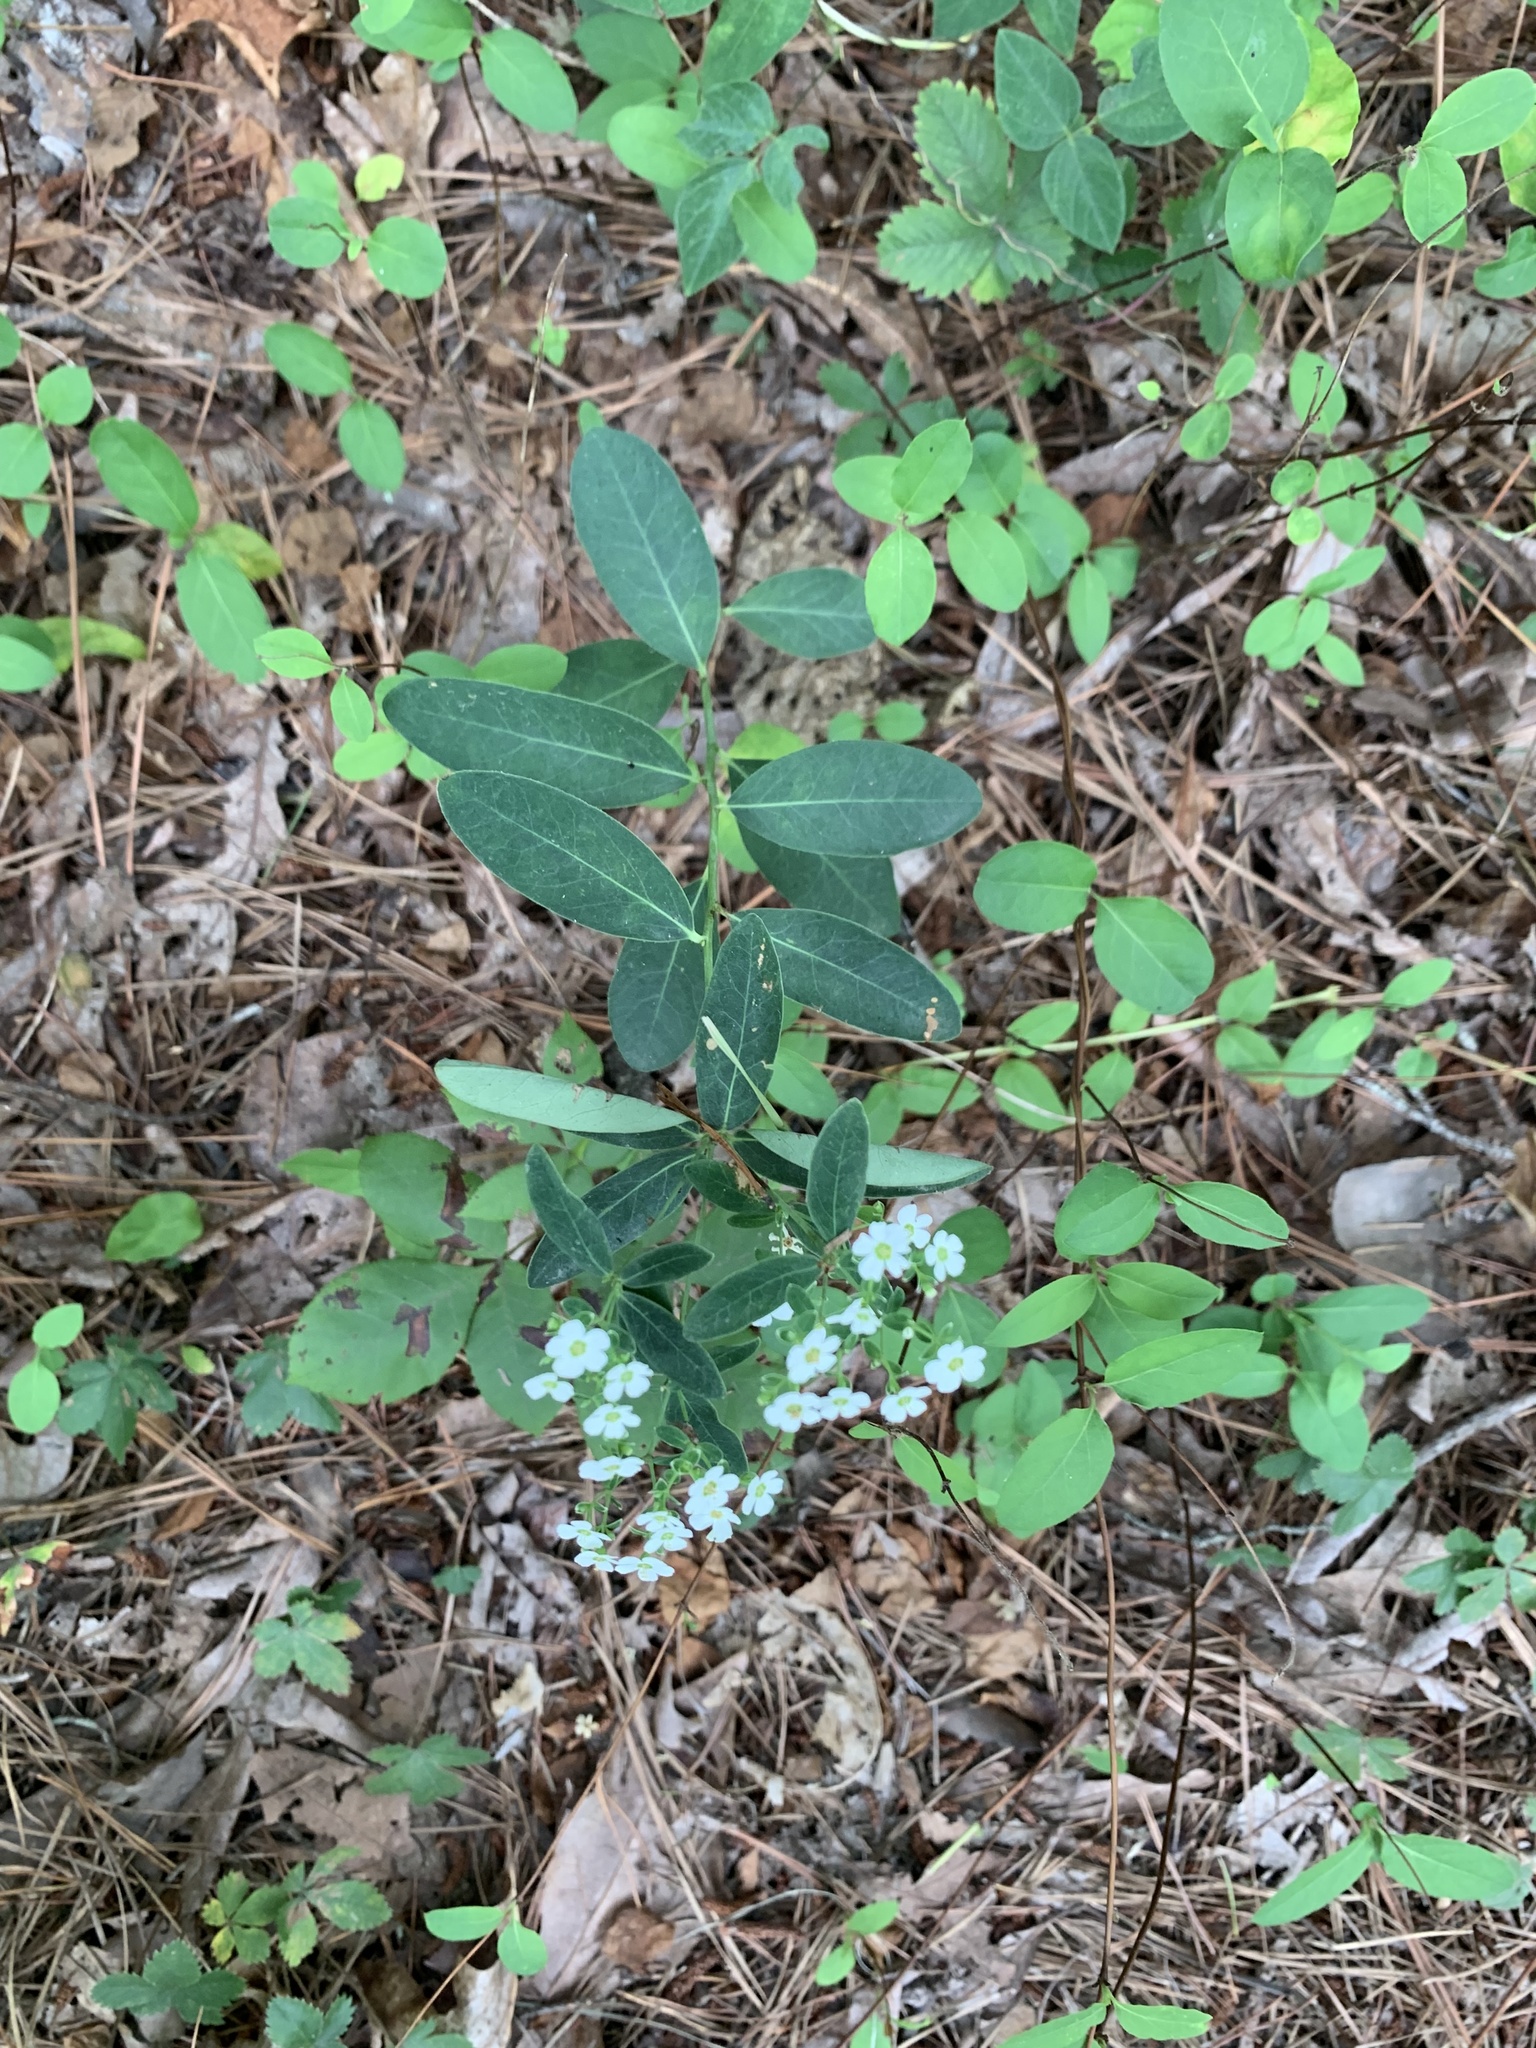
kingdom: Plantae
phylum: Tracheophyta
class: Magnoliopsida
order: Malpighiales
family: Euphorbiaceae
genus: Euphorbia
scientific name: Euphorbia corollata
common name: Flowering spurge
